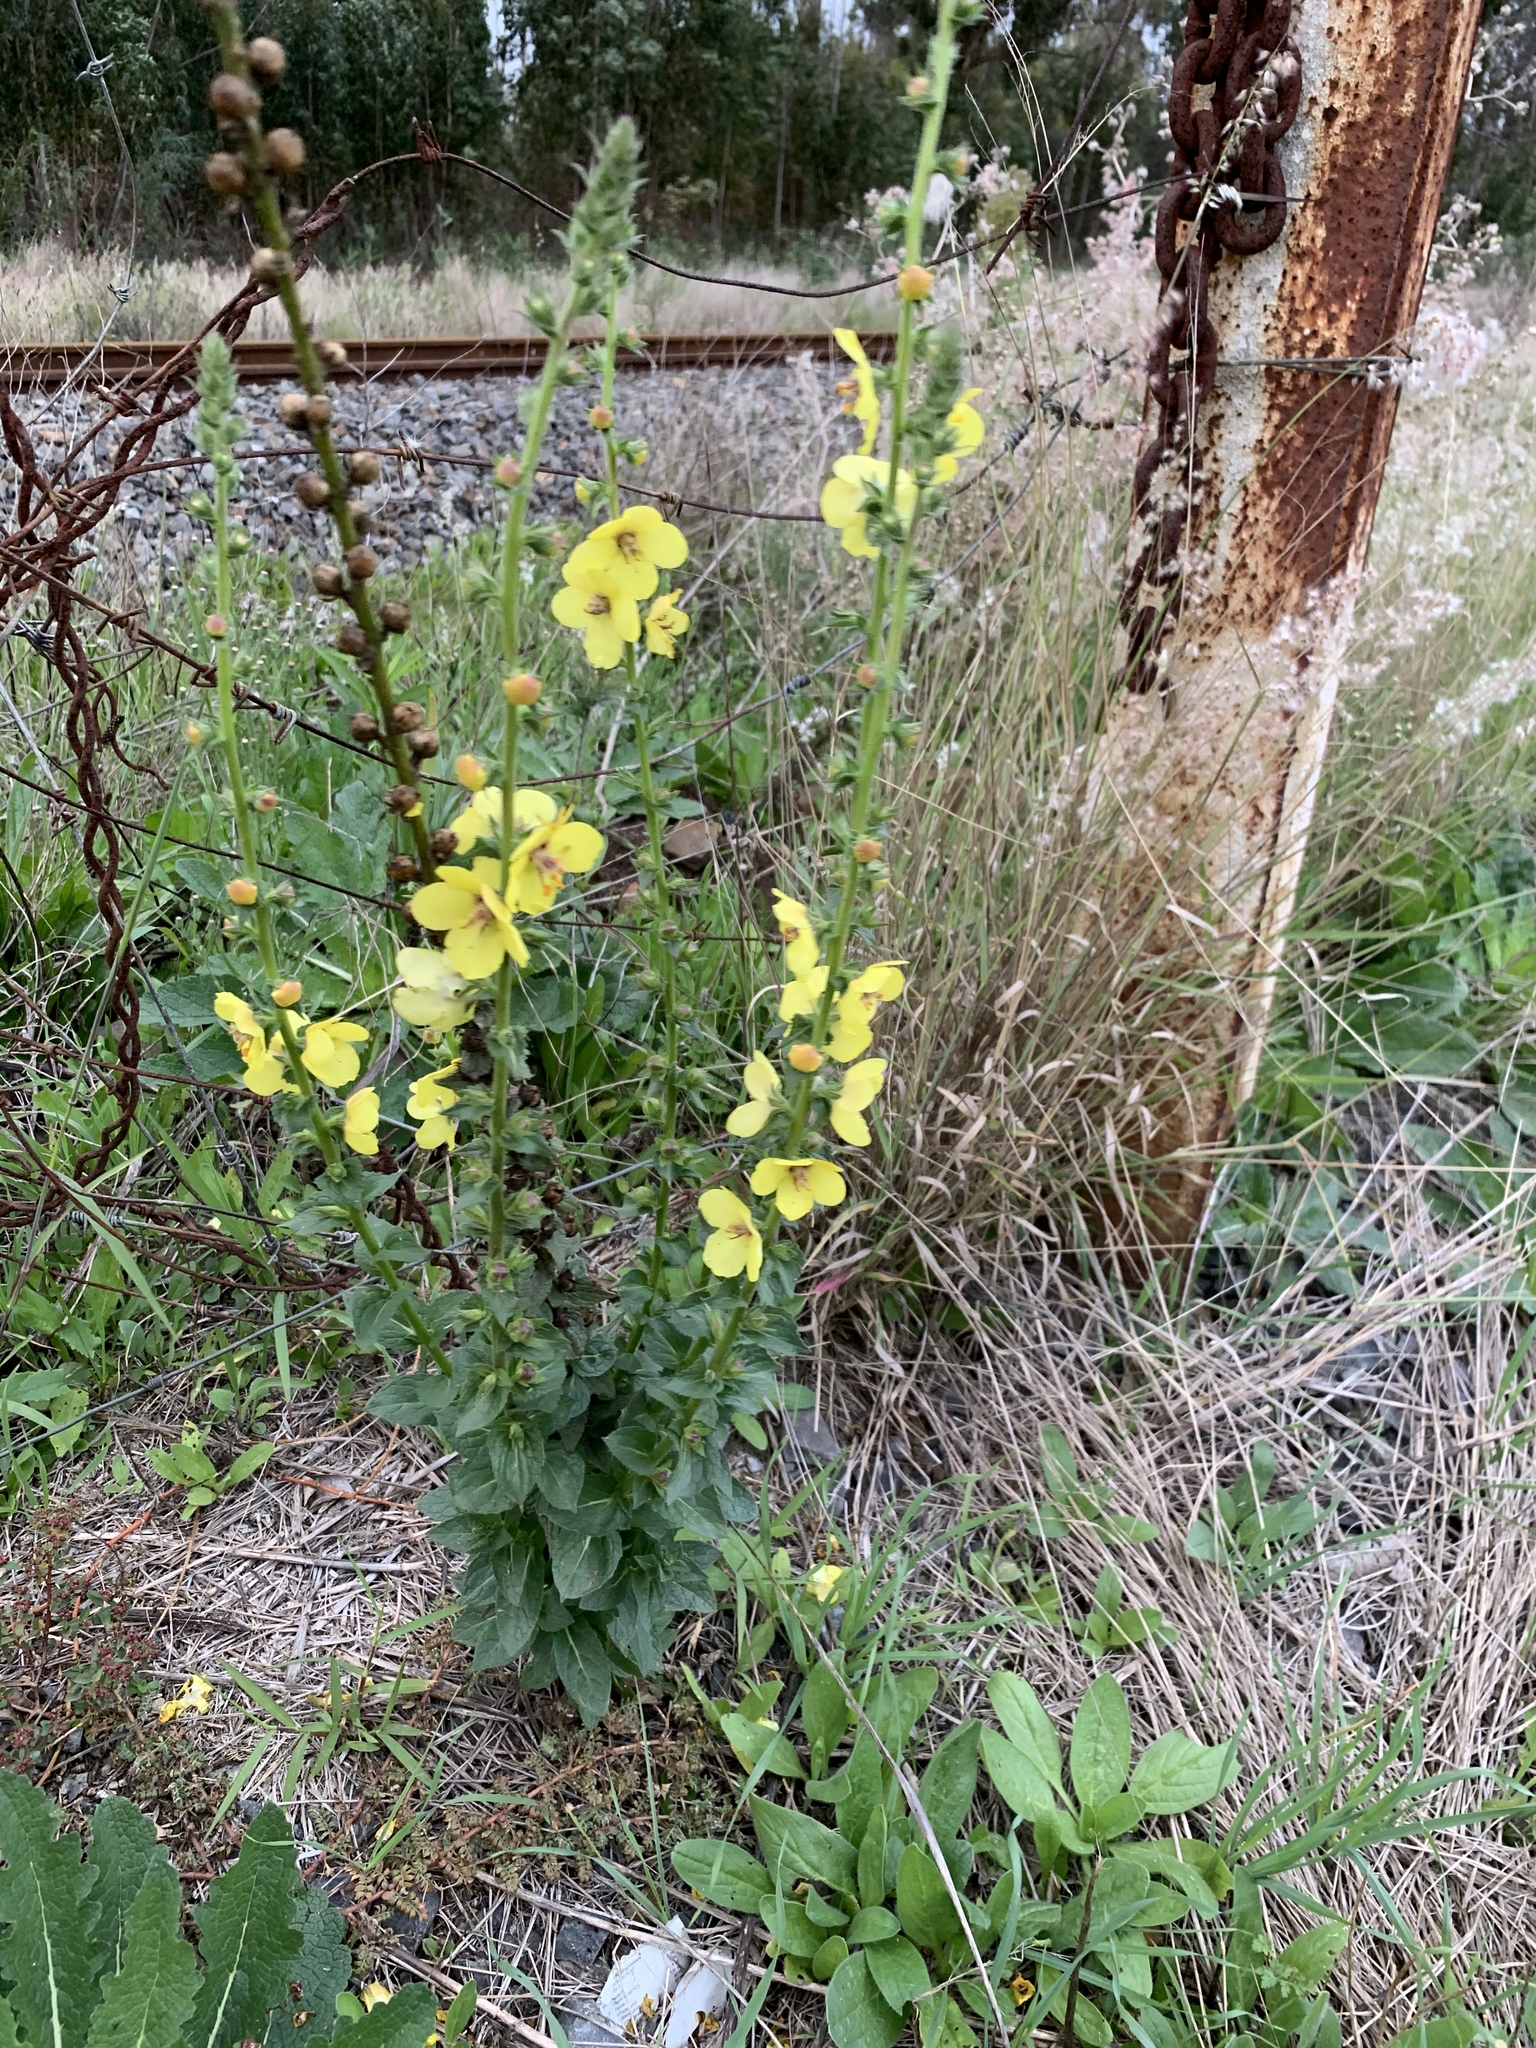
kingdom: Plantae
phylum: Tracheophyta
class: Magnoliopsida
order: Lamiales
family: Scrophulariaceae
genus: Verbascum
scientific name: Verbascum virgatum
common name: Twiggy mullein
